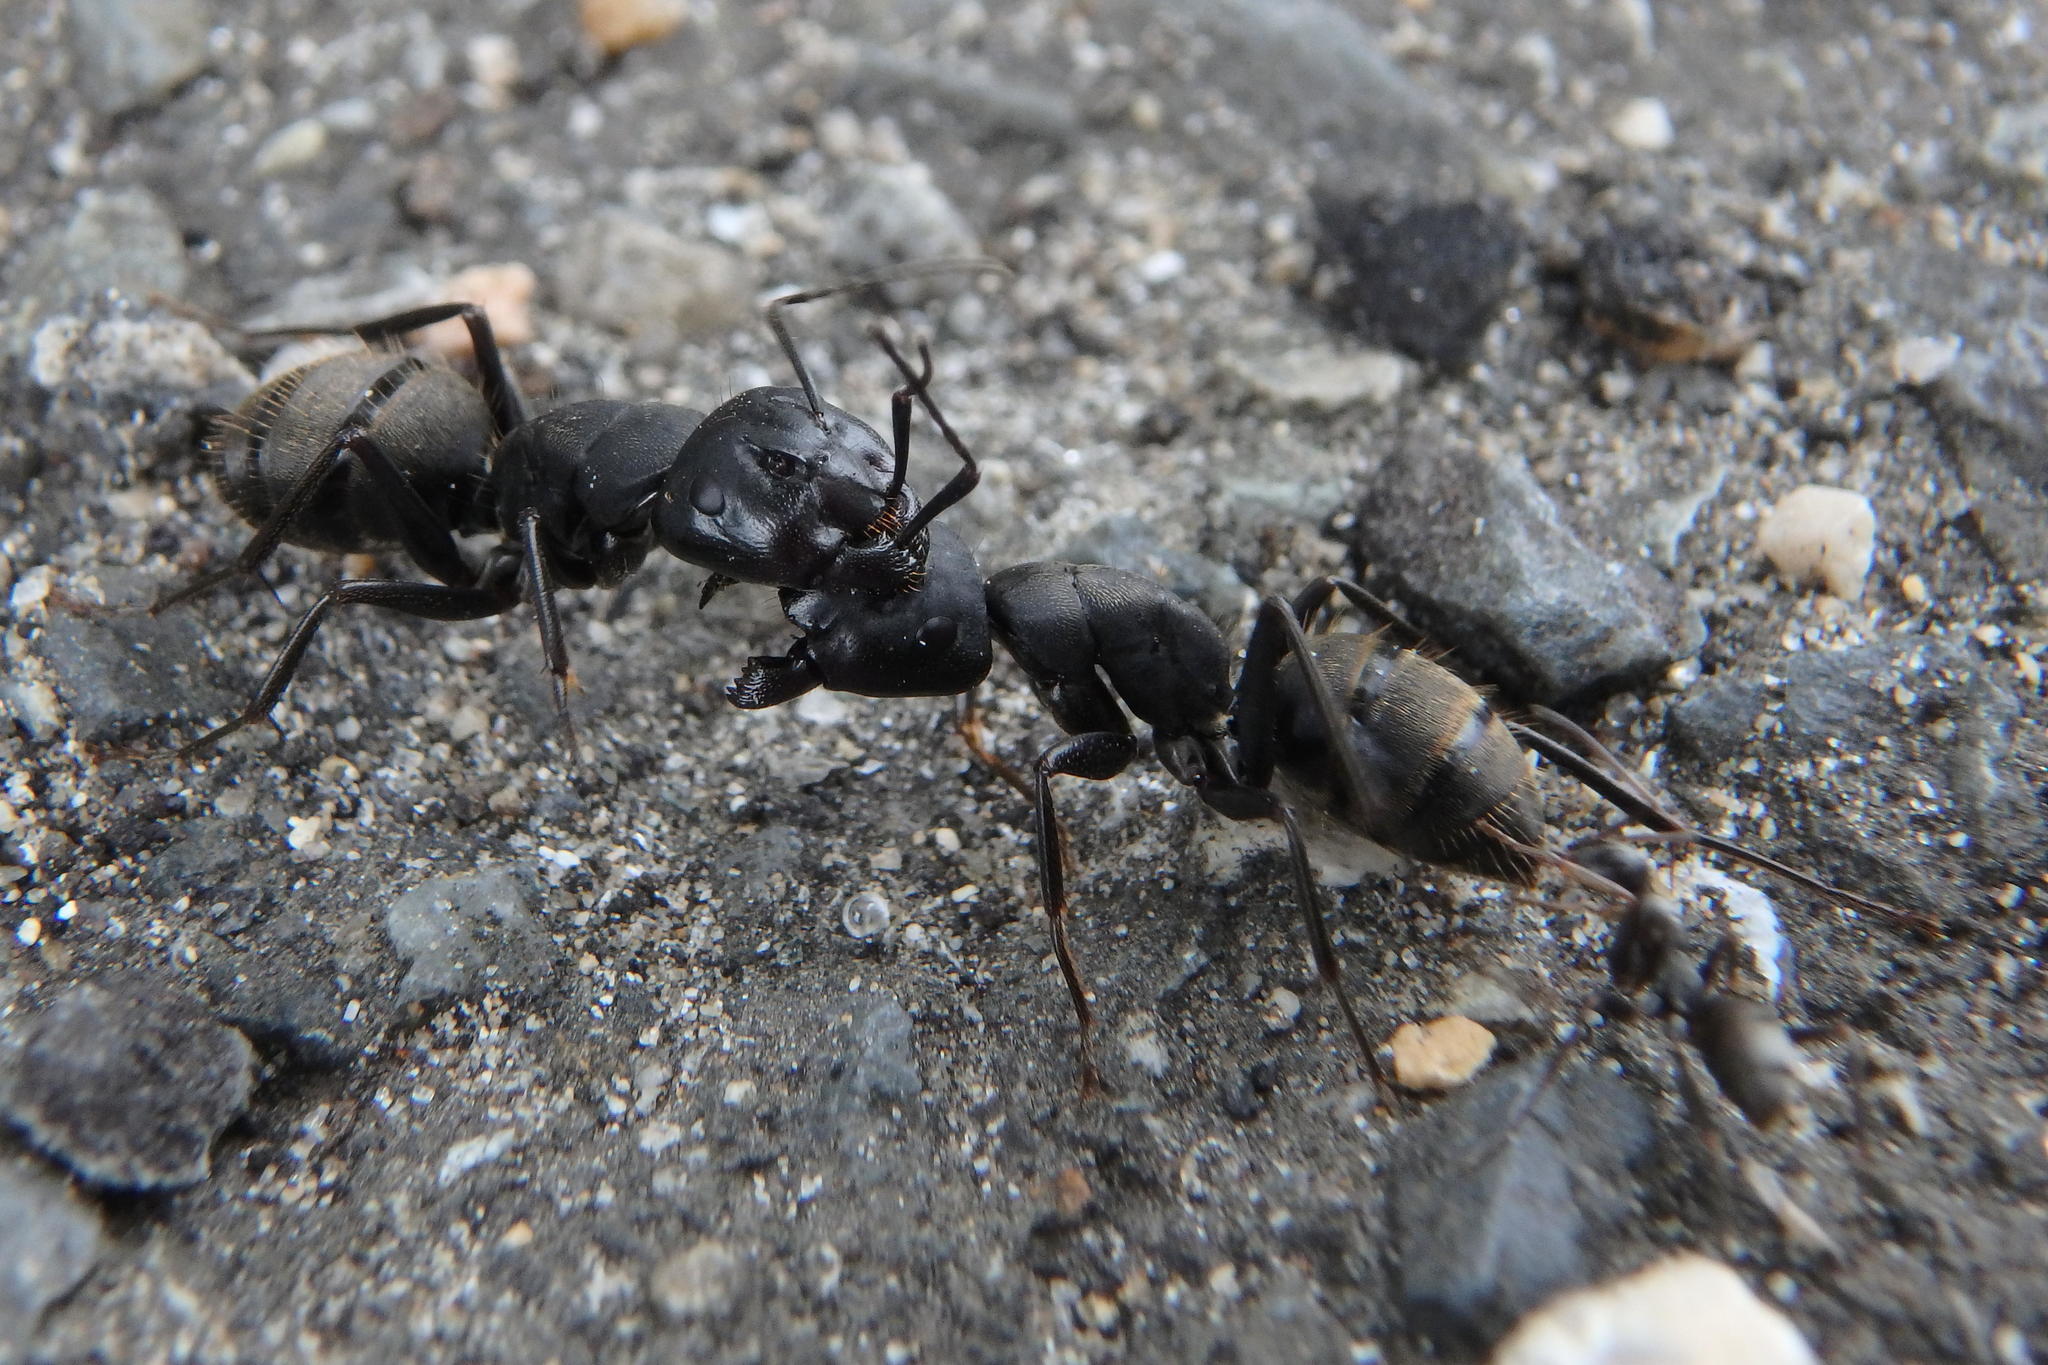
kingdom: Animalia
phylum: Arthropoda
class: Insecta
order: Hymenoptera
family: Formicidae
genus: Camponotus
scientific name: Camponotus japonicus
